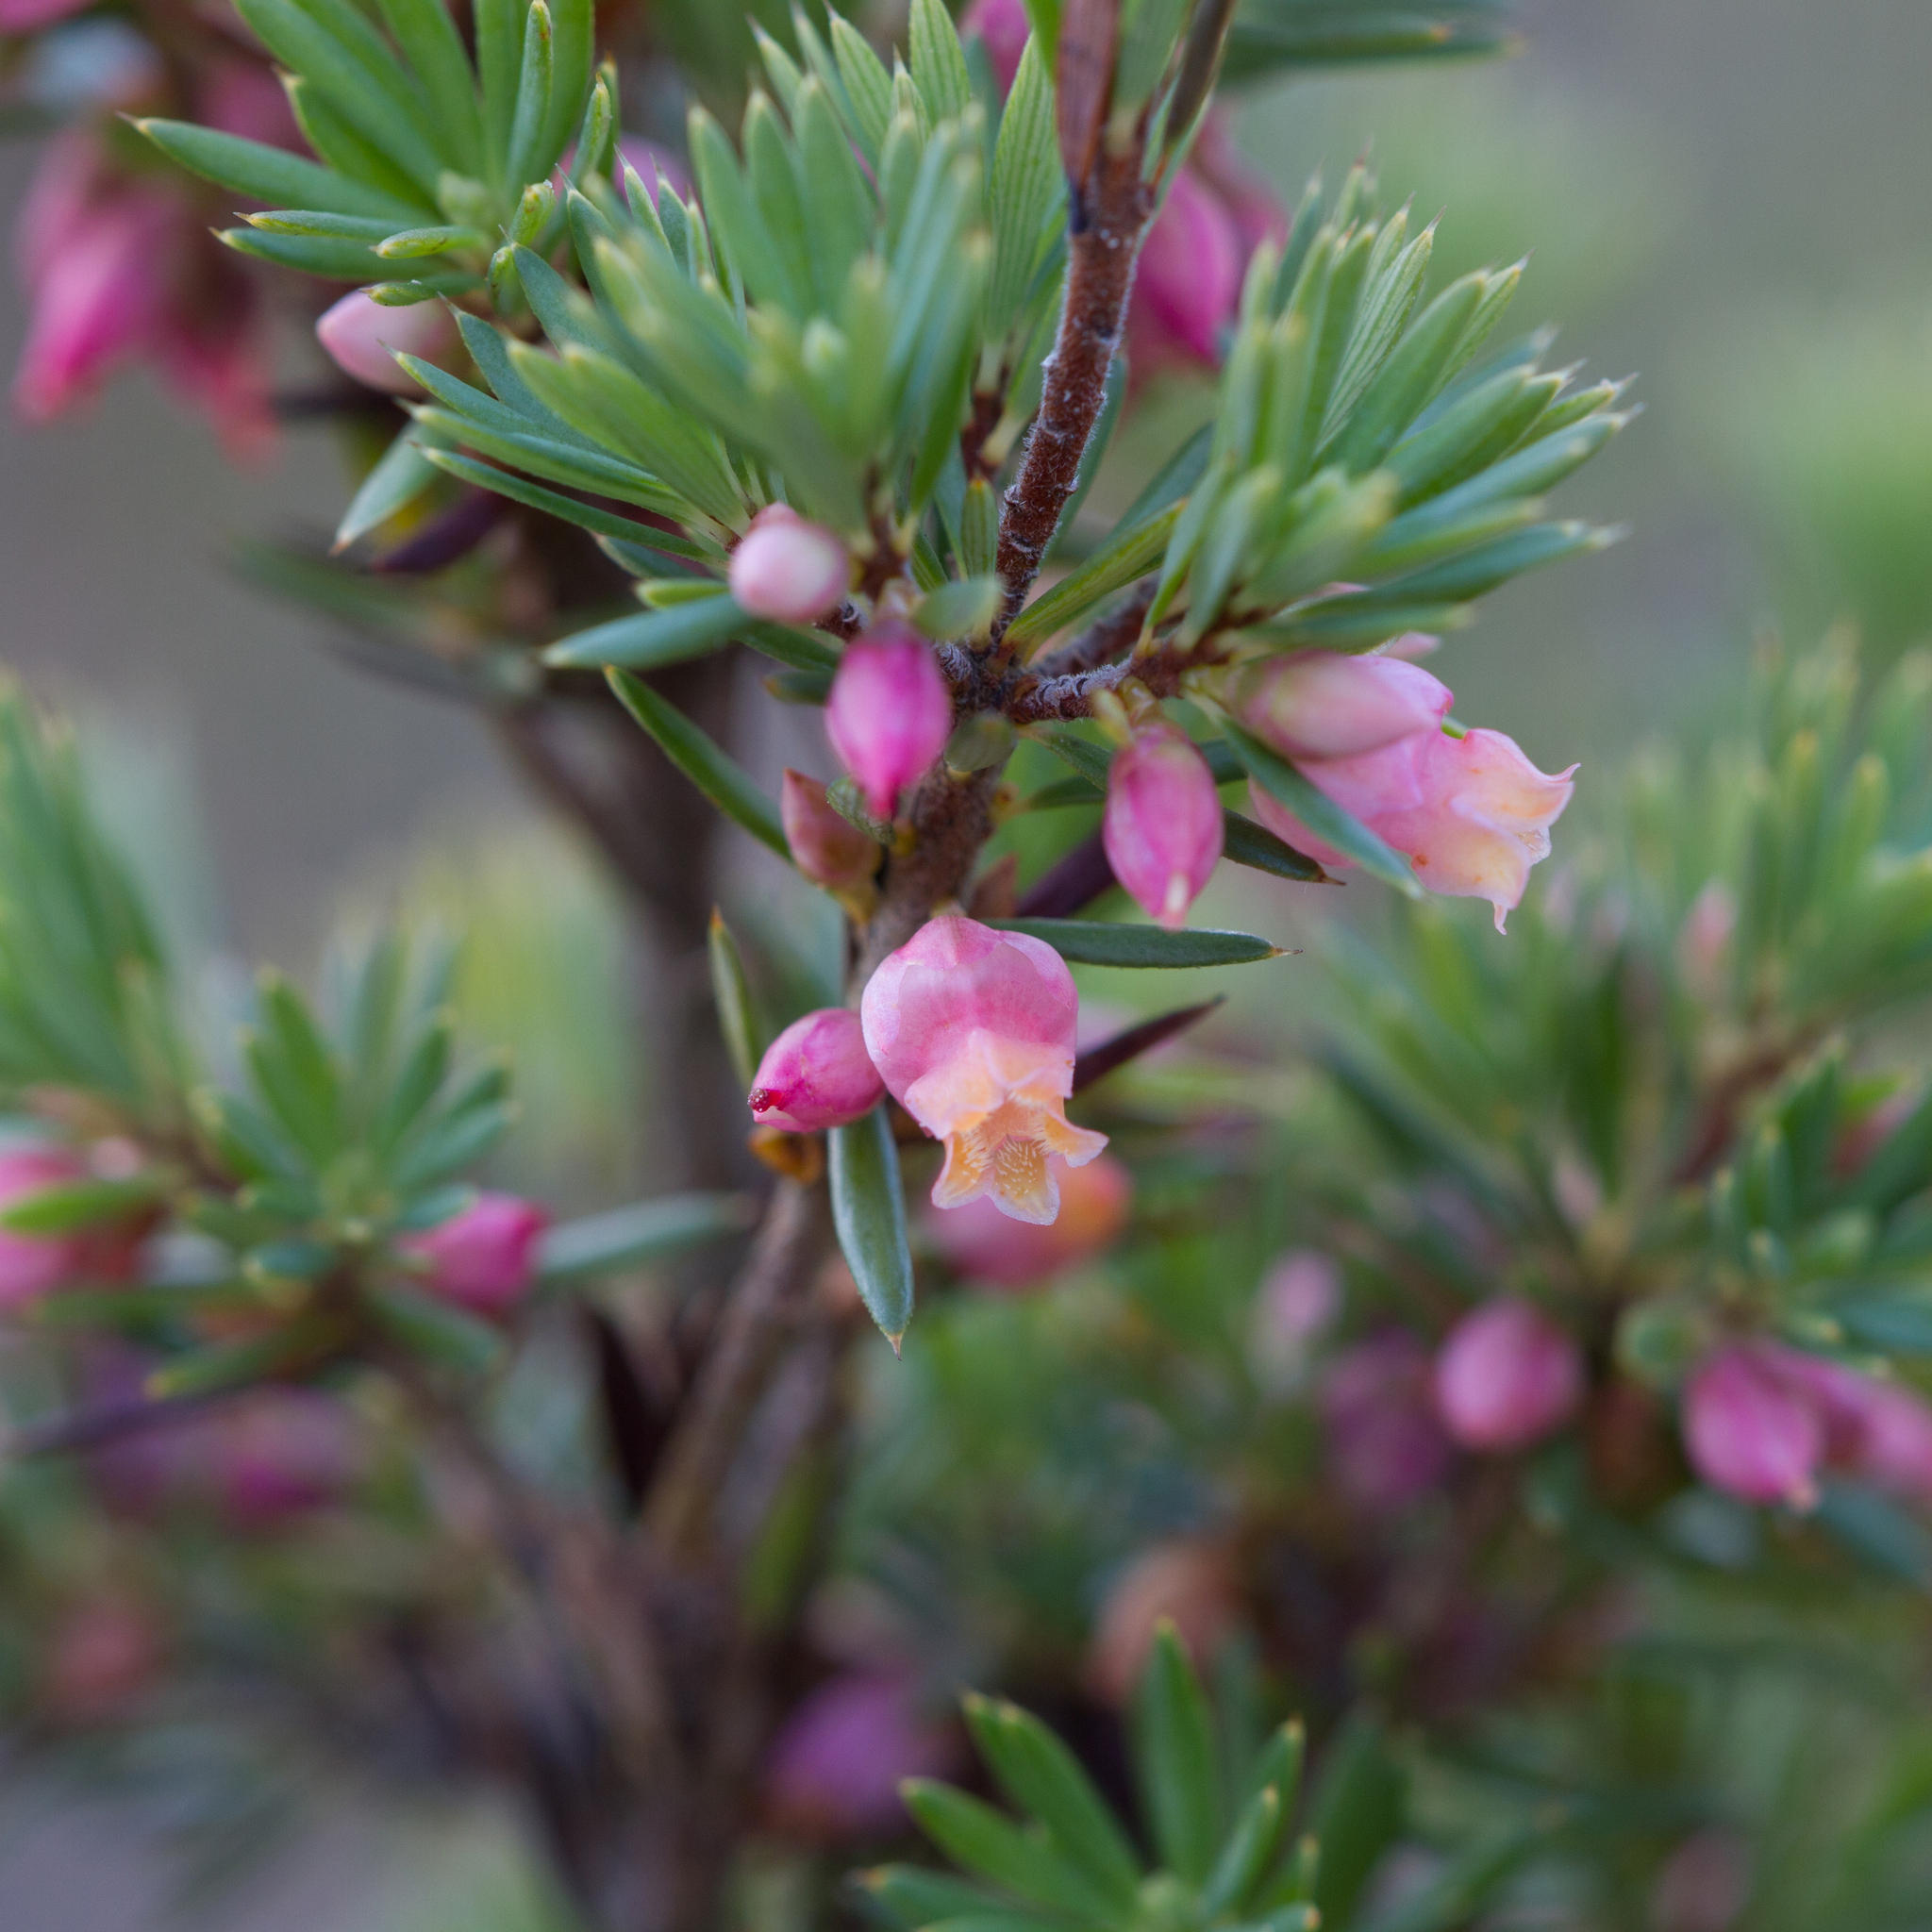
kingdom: Plantae
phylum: Tracheophyta
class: Magnoliopsida
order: Ericales
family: Ericaceae
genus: Brachyloma
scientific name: Brachyloma ericoides
